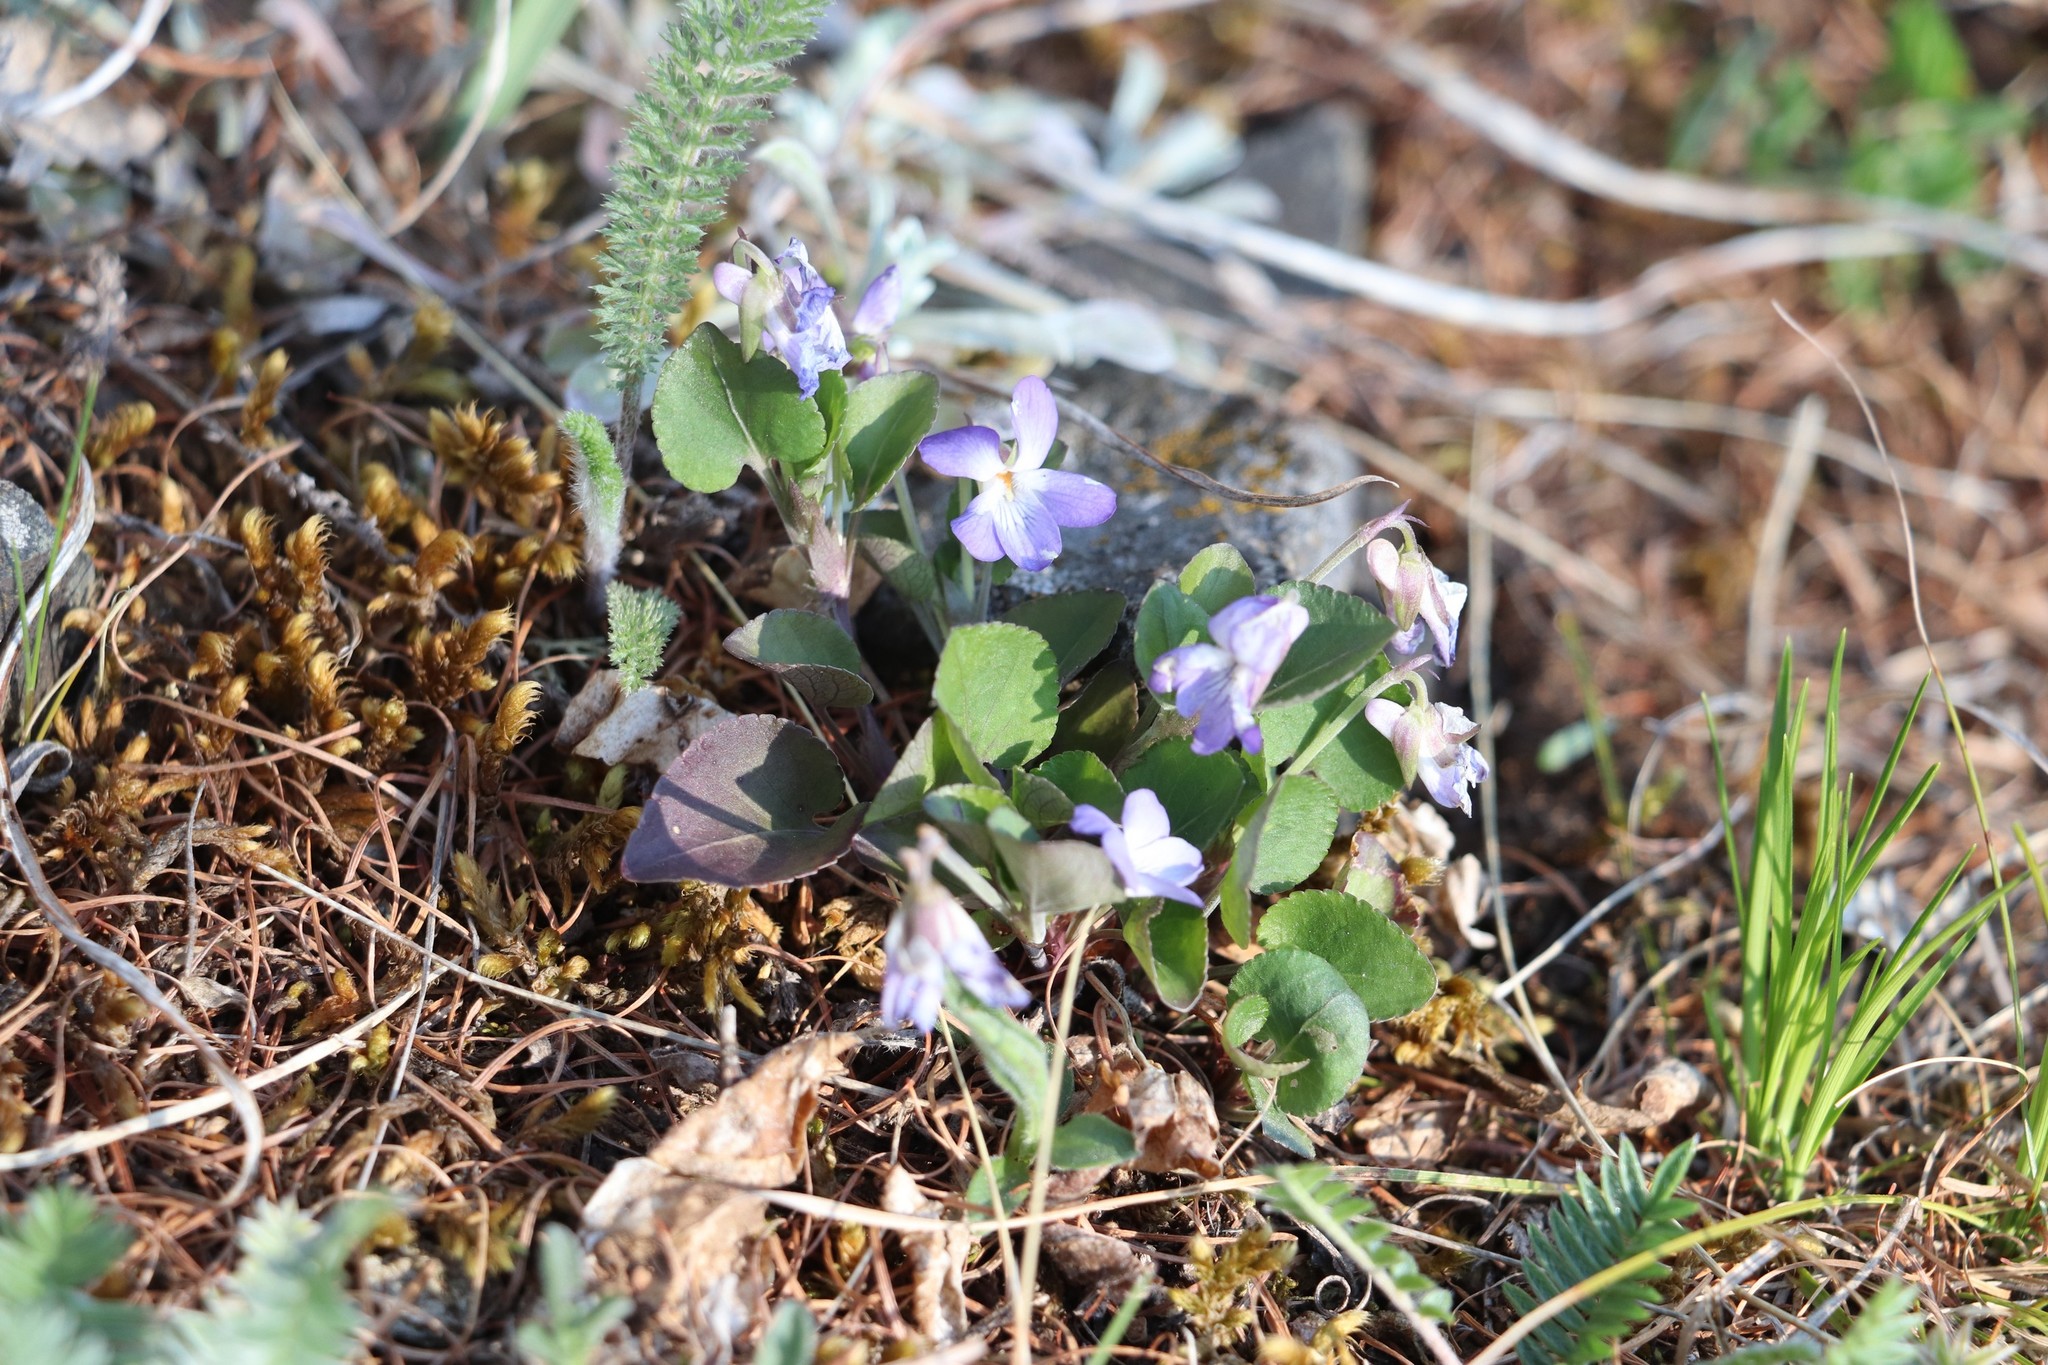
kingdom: Plantae
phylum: Tracheophyta
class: Magnoliopsida
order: Malpighiales
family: Violaceae
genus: Viola
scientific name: Viola rupestris
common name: Teesdale violet
